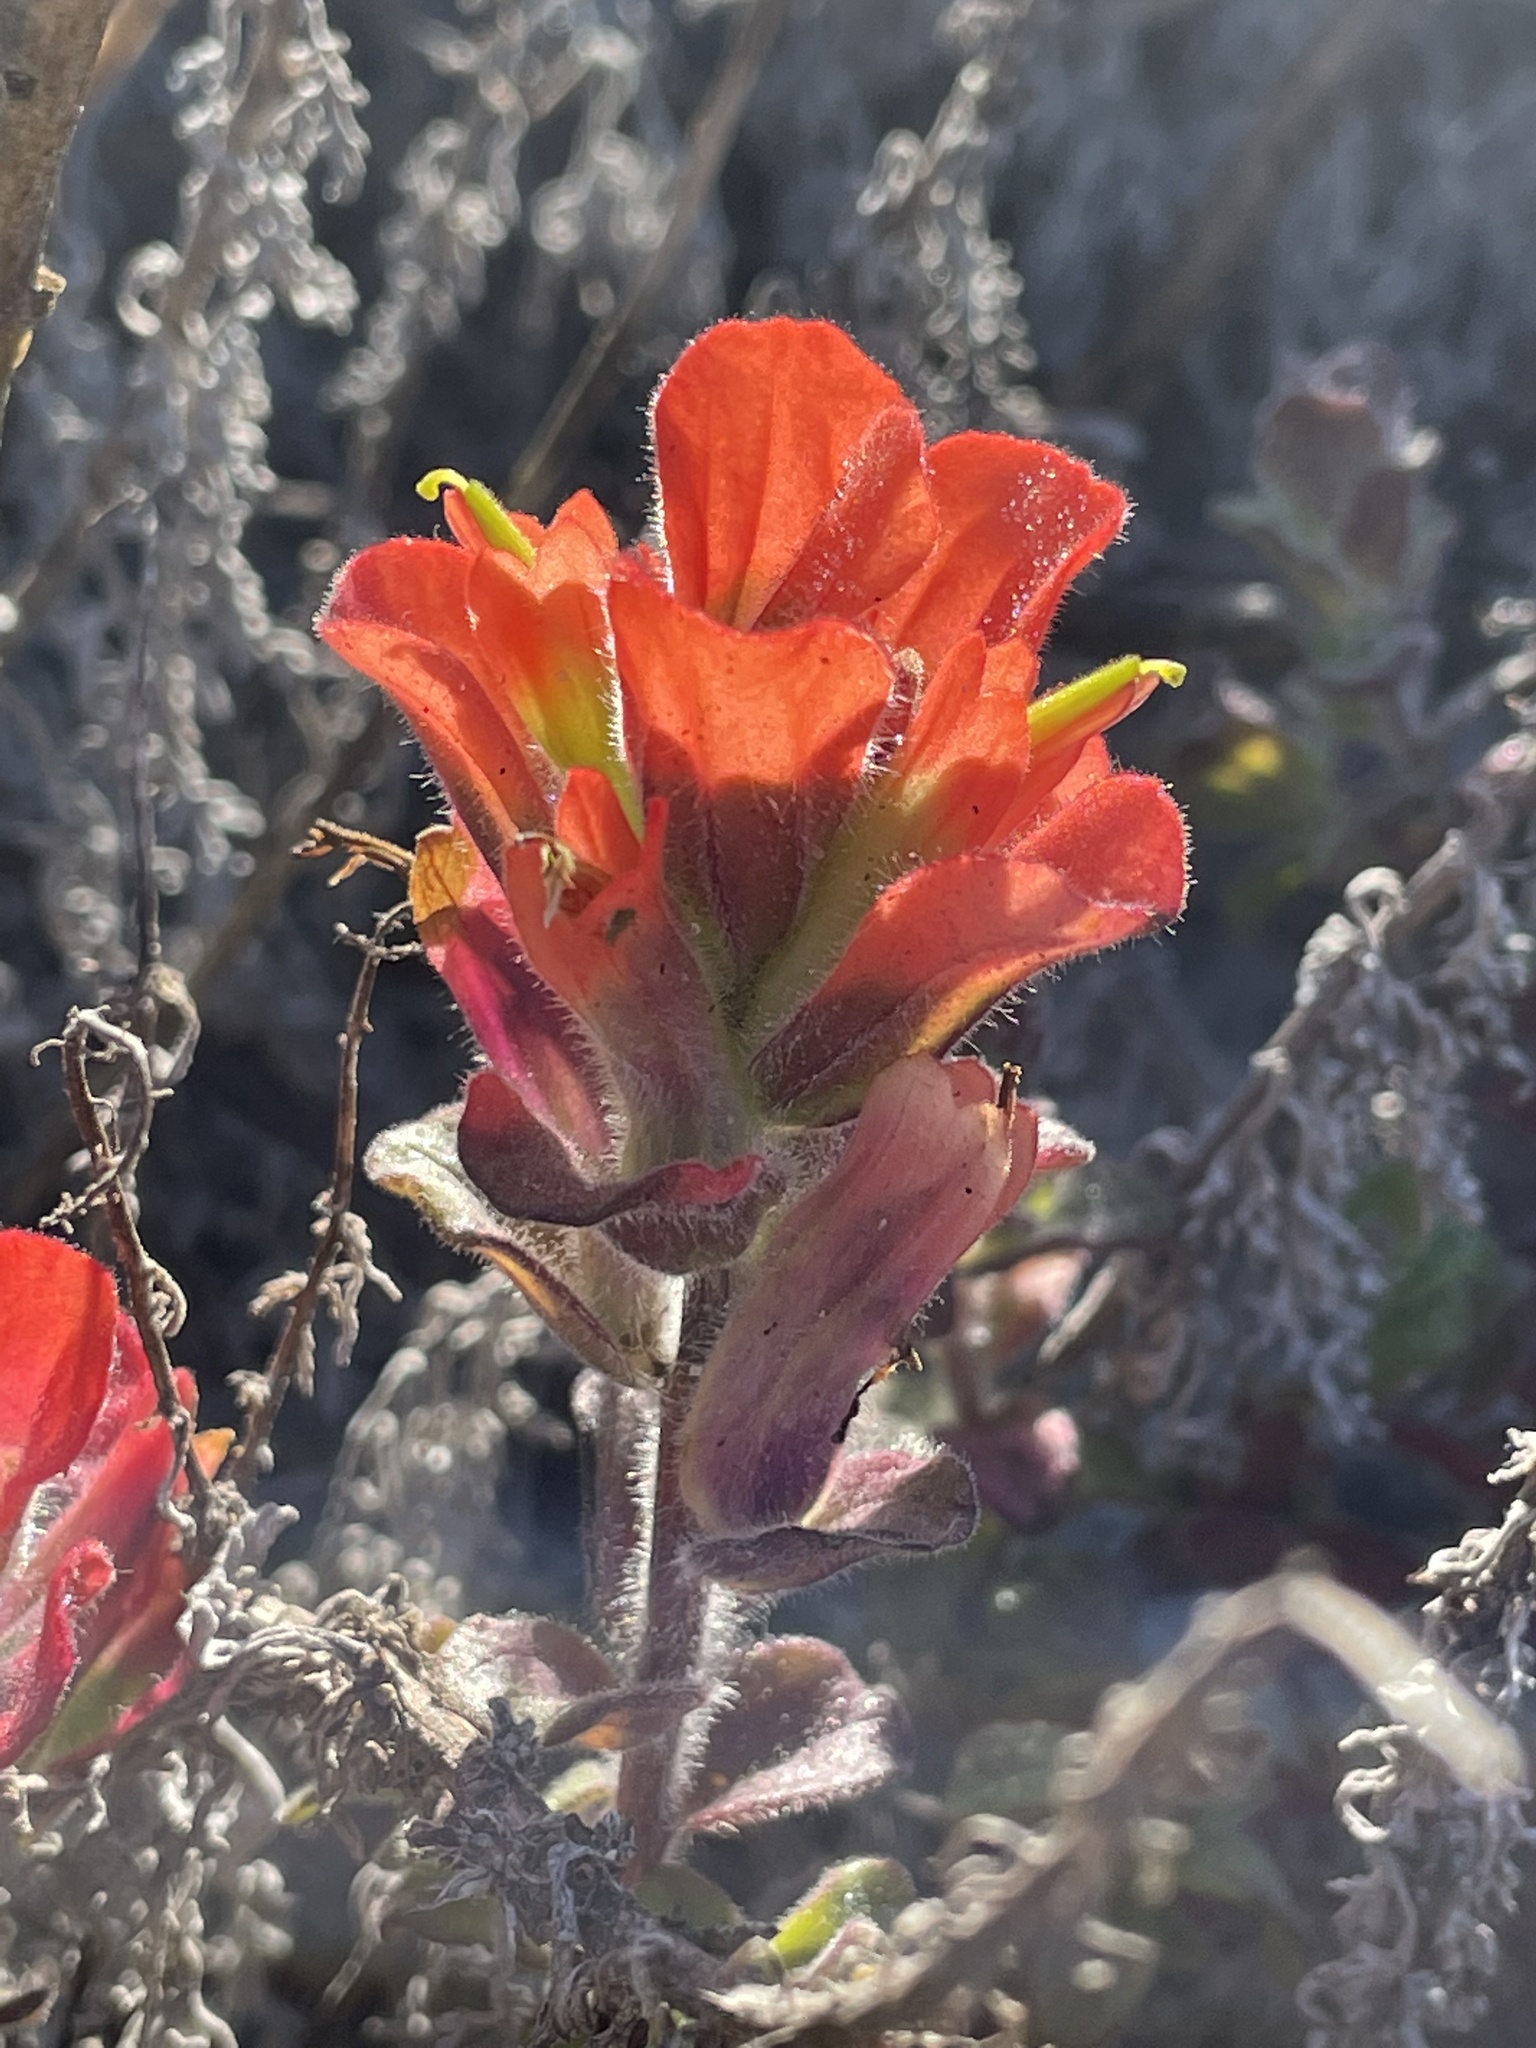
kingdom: Plantae
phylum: Tracheophyta
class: Magnoliopsida
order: Lamiales
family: Orobanchaceae
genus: Castilleja
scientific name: Castilleja latifolia
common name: Monterey indian paintbrush
